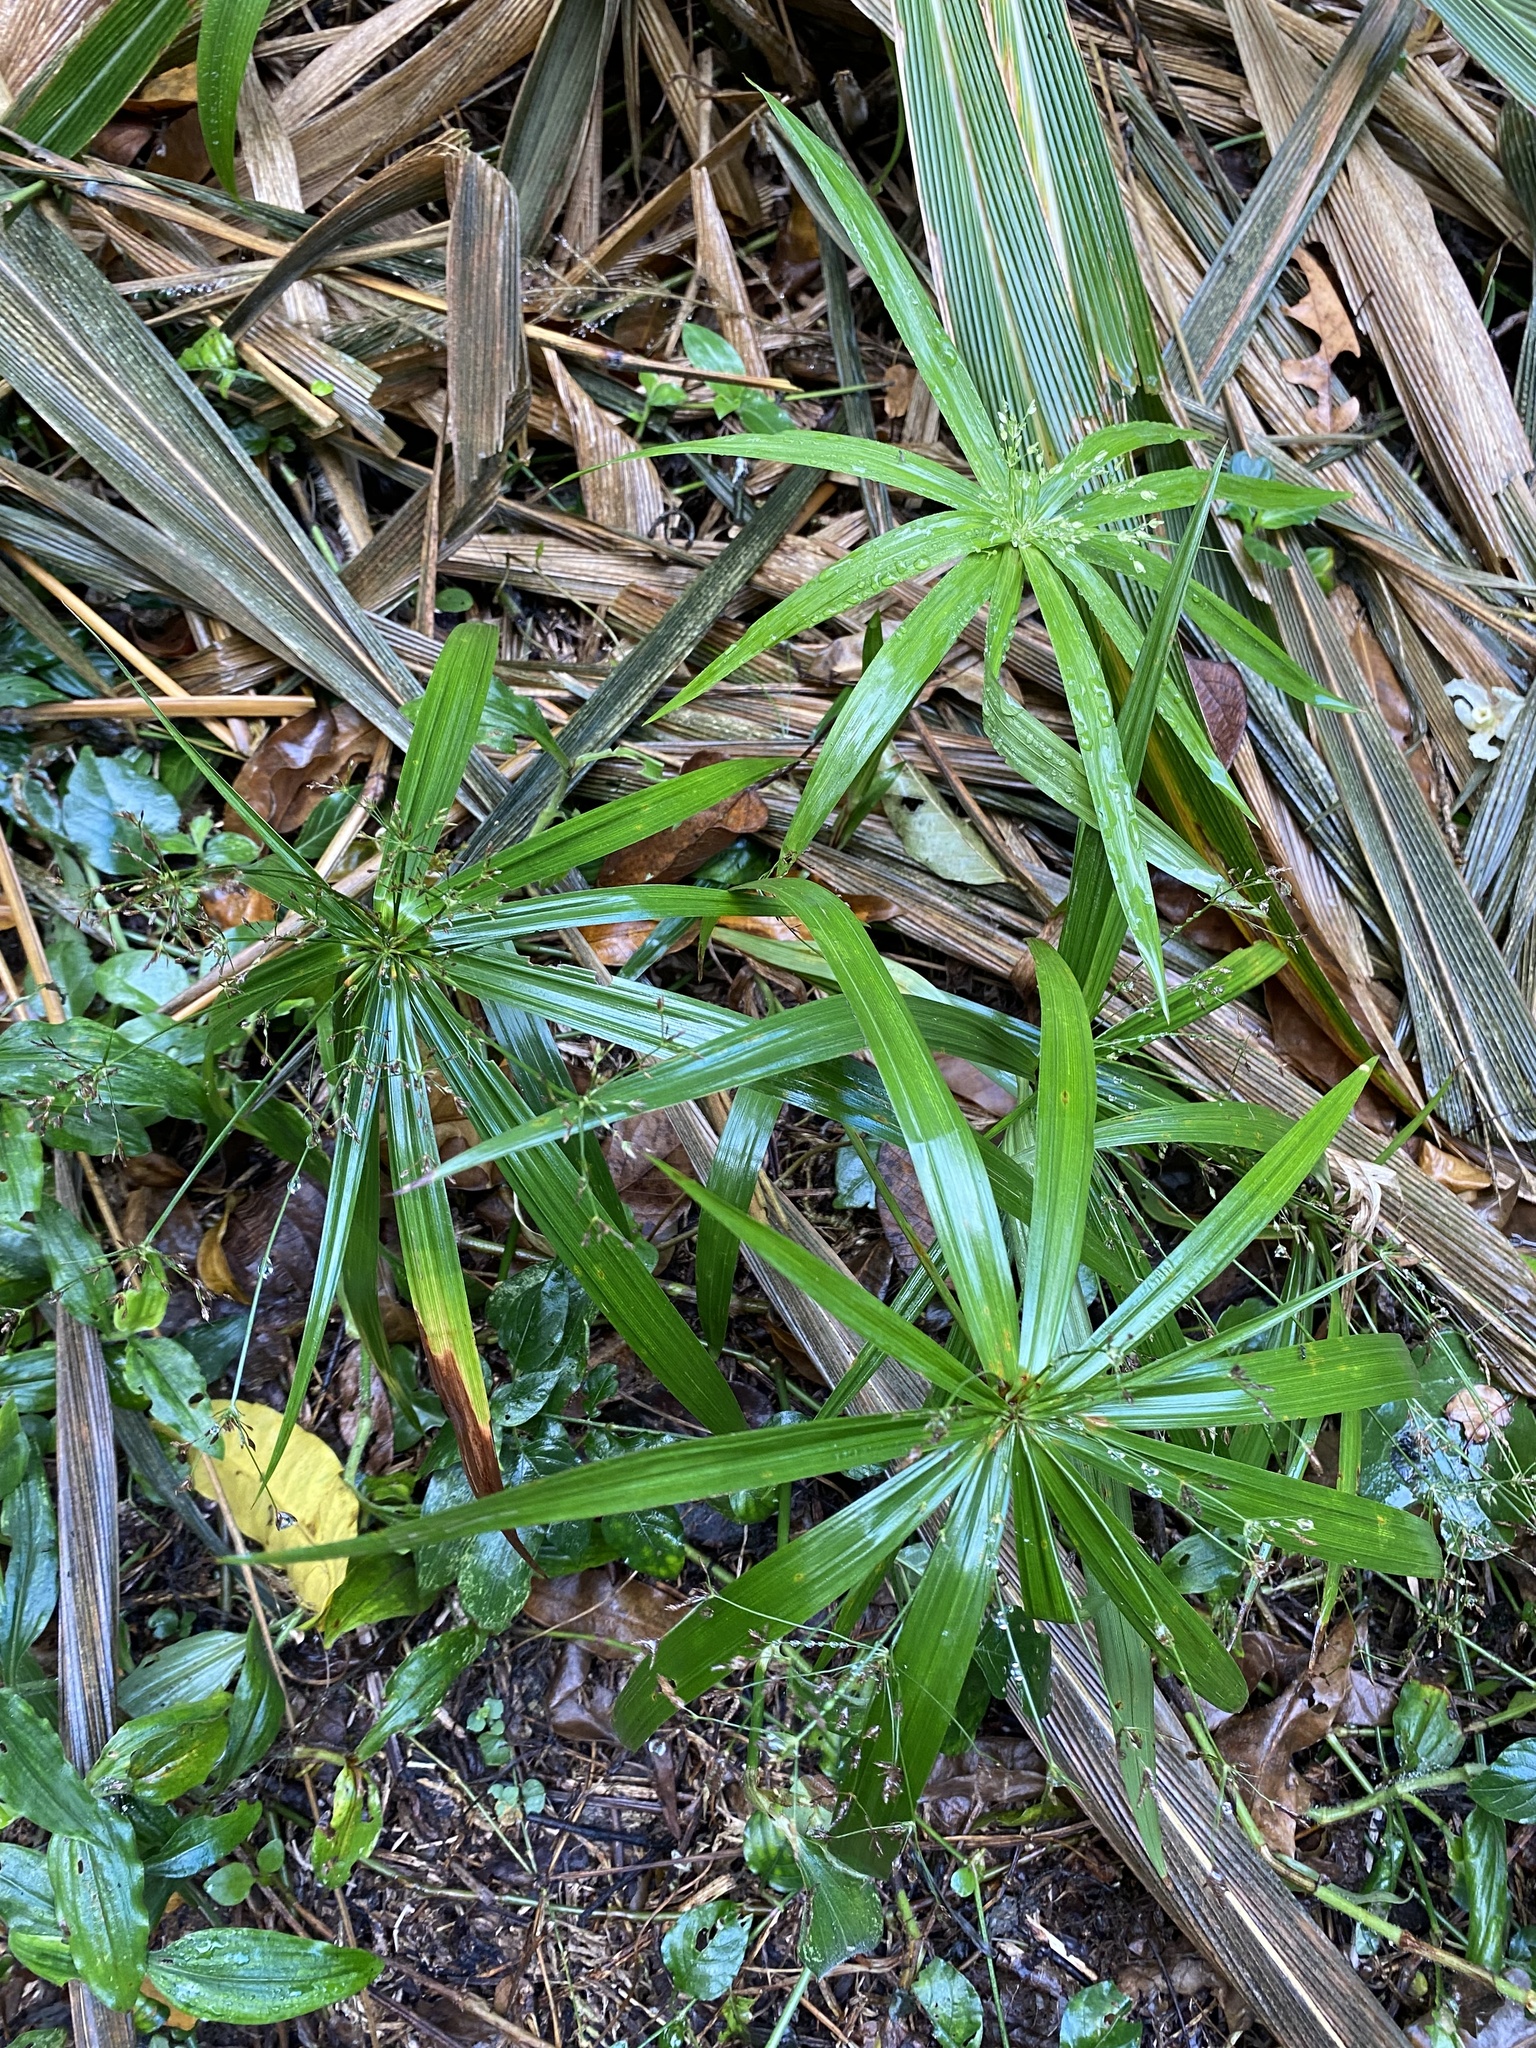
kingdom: Plantae
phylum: Tracheophyta
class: Liliopsida
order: Poales
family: Cyperaceae
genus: Cyperus
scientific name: Cyperus albostriatus
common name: Dwarf umbrella-grass
